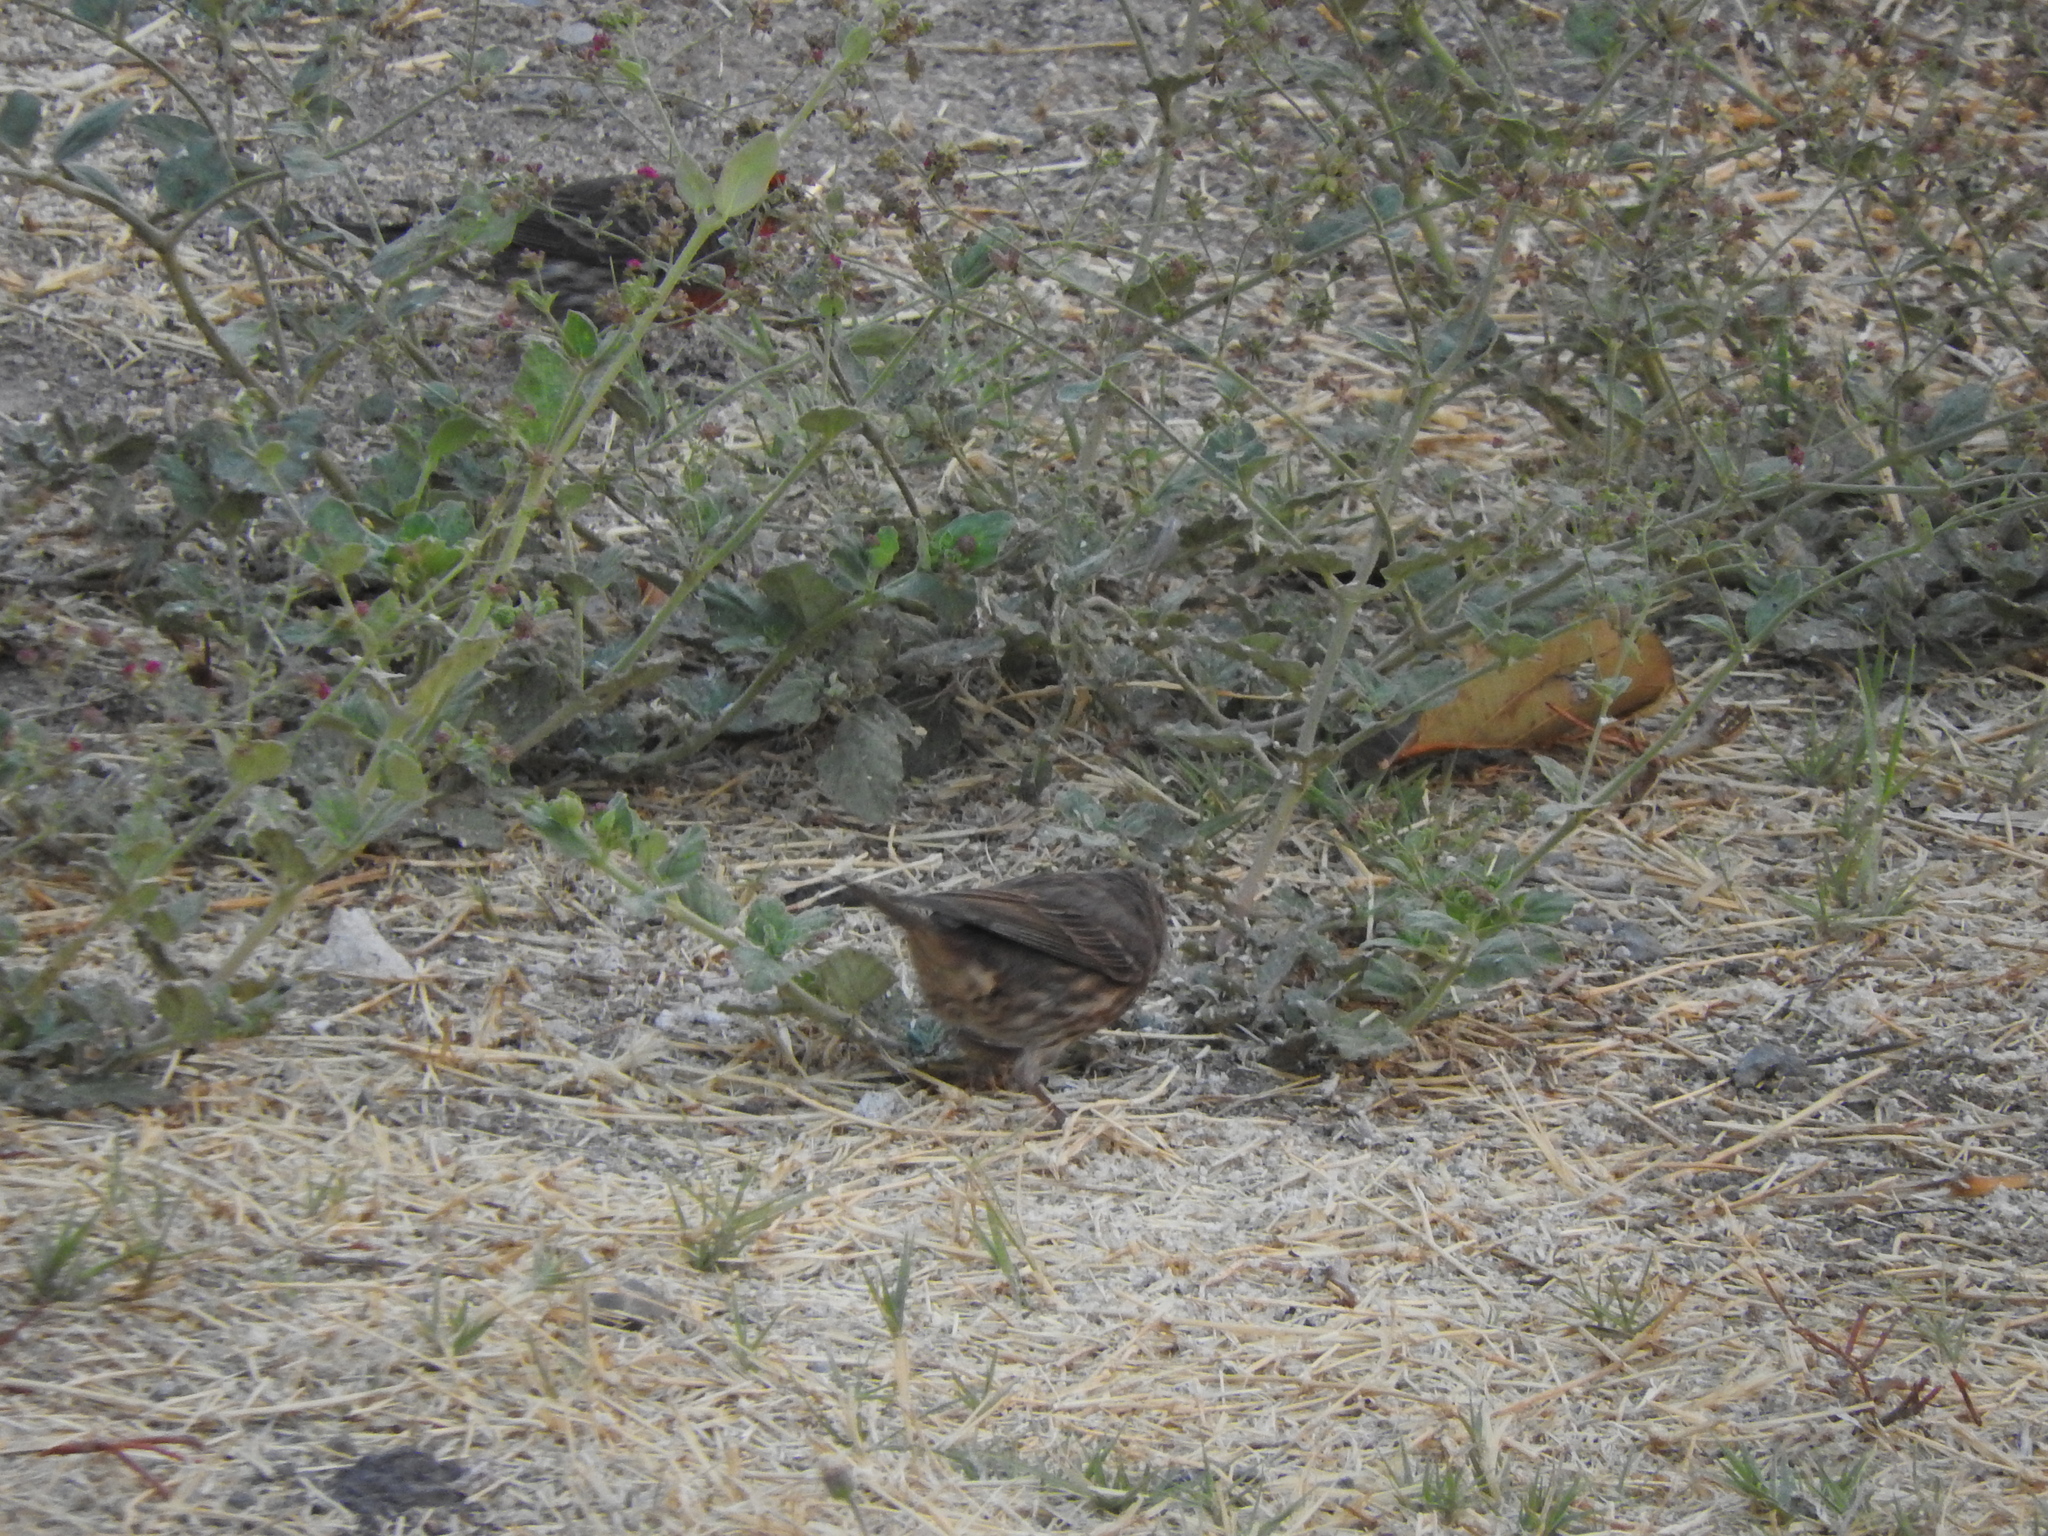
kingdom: Animalia
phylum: Chordata
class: Aves
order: Passeriformes
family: Fringillidae
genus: Haemorhous
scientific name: Haemorhous mexicanus
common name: House finch
